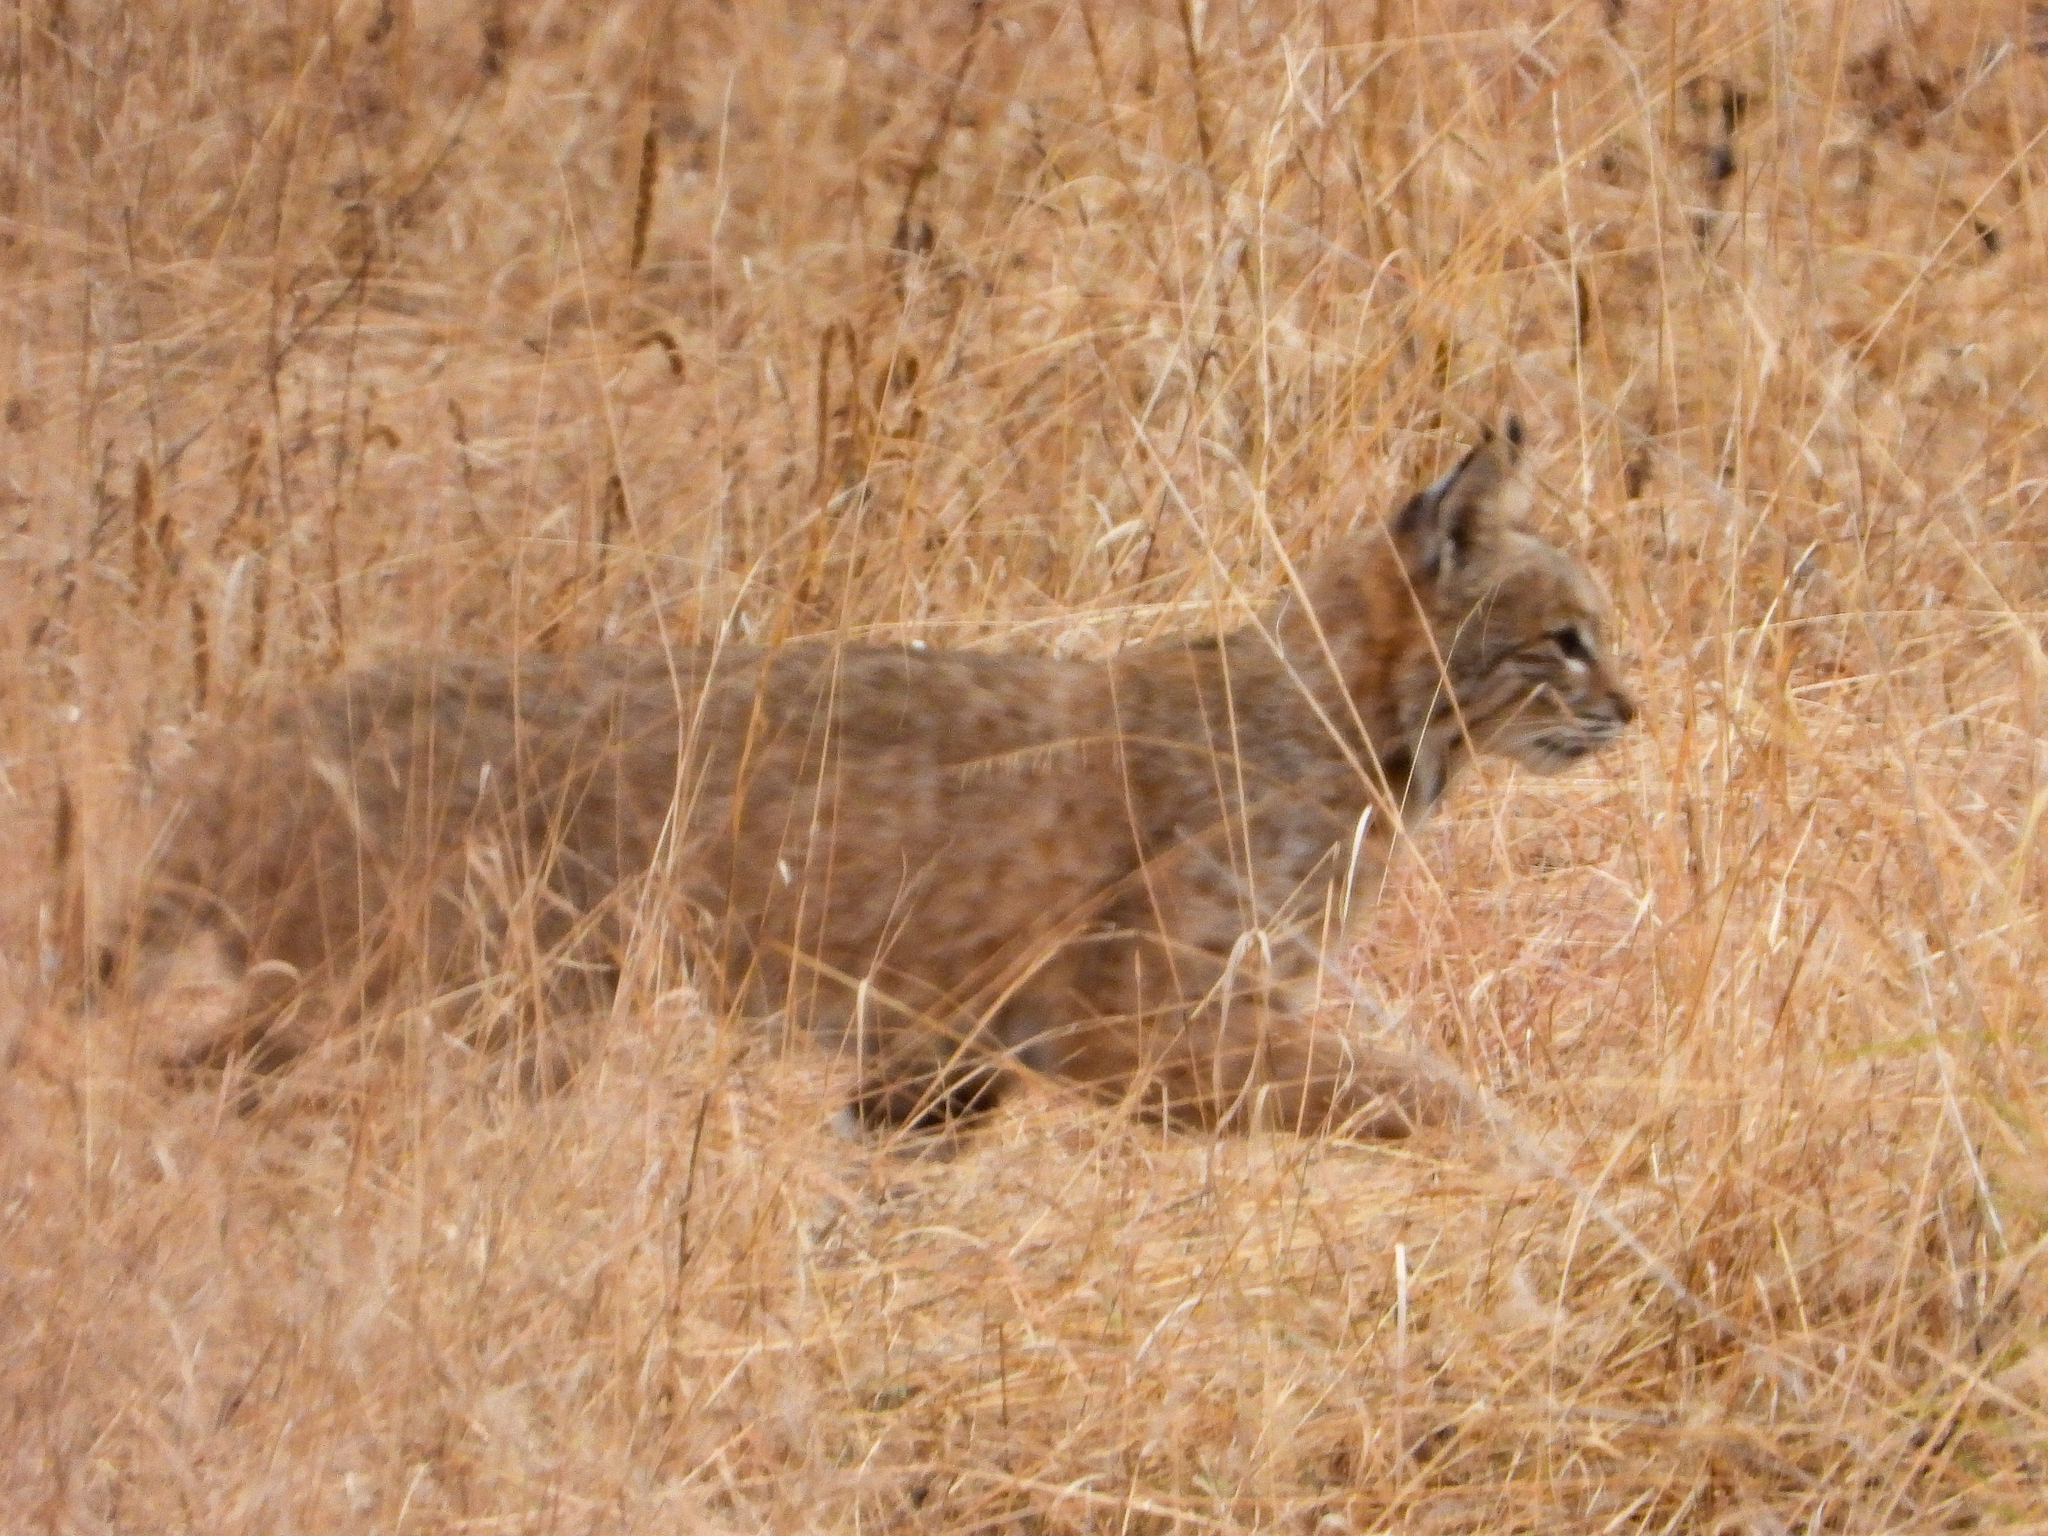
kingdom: Animalia
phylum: Chordata
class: Mammalia
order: Carnivora
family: Felidae
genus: Lynx
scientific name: Lynx rufus
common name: Bobcat
